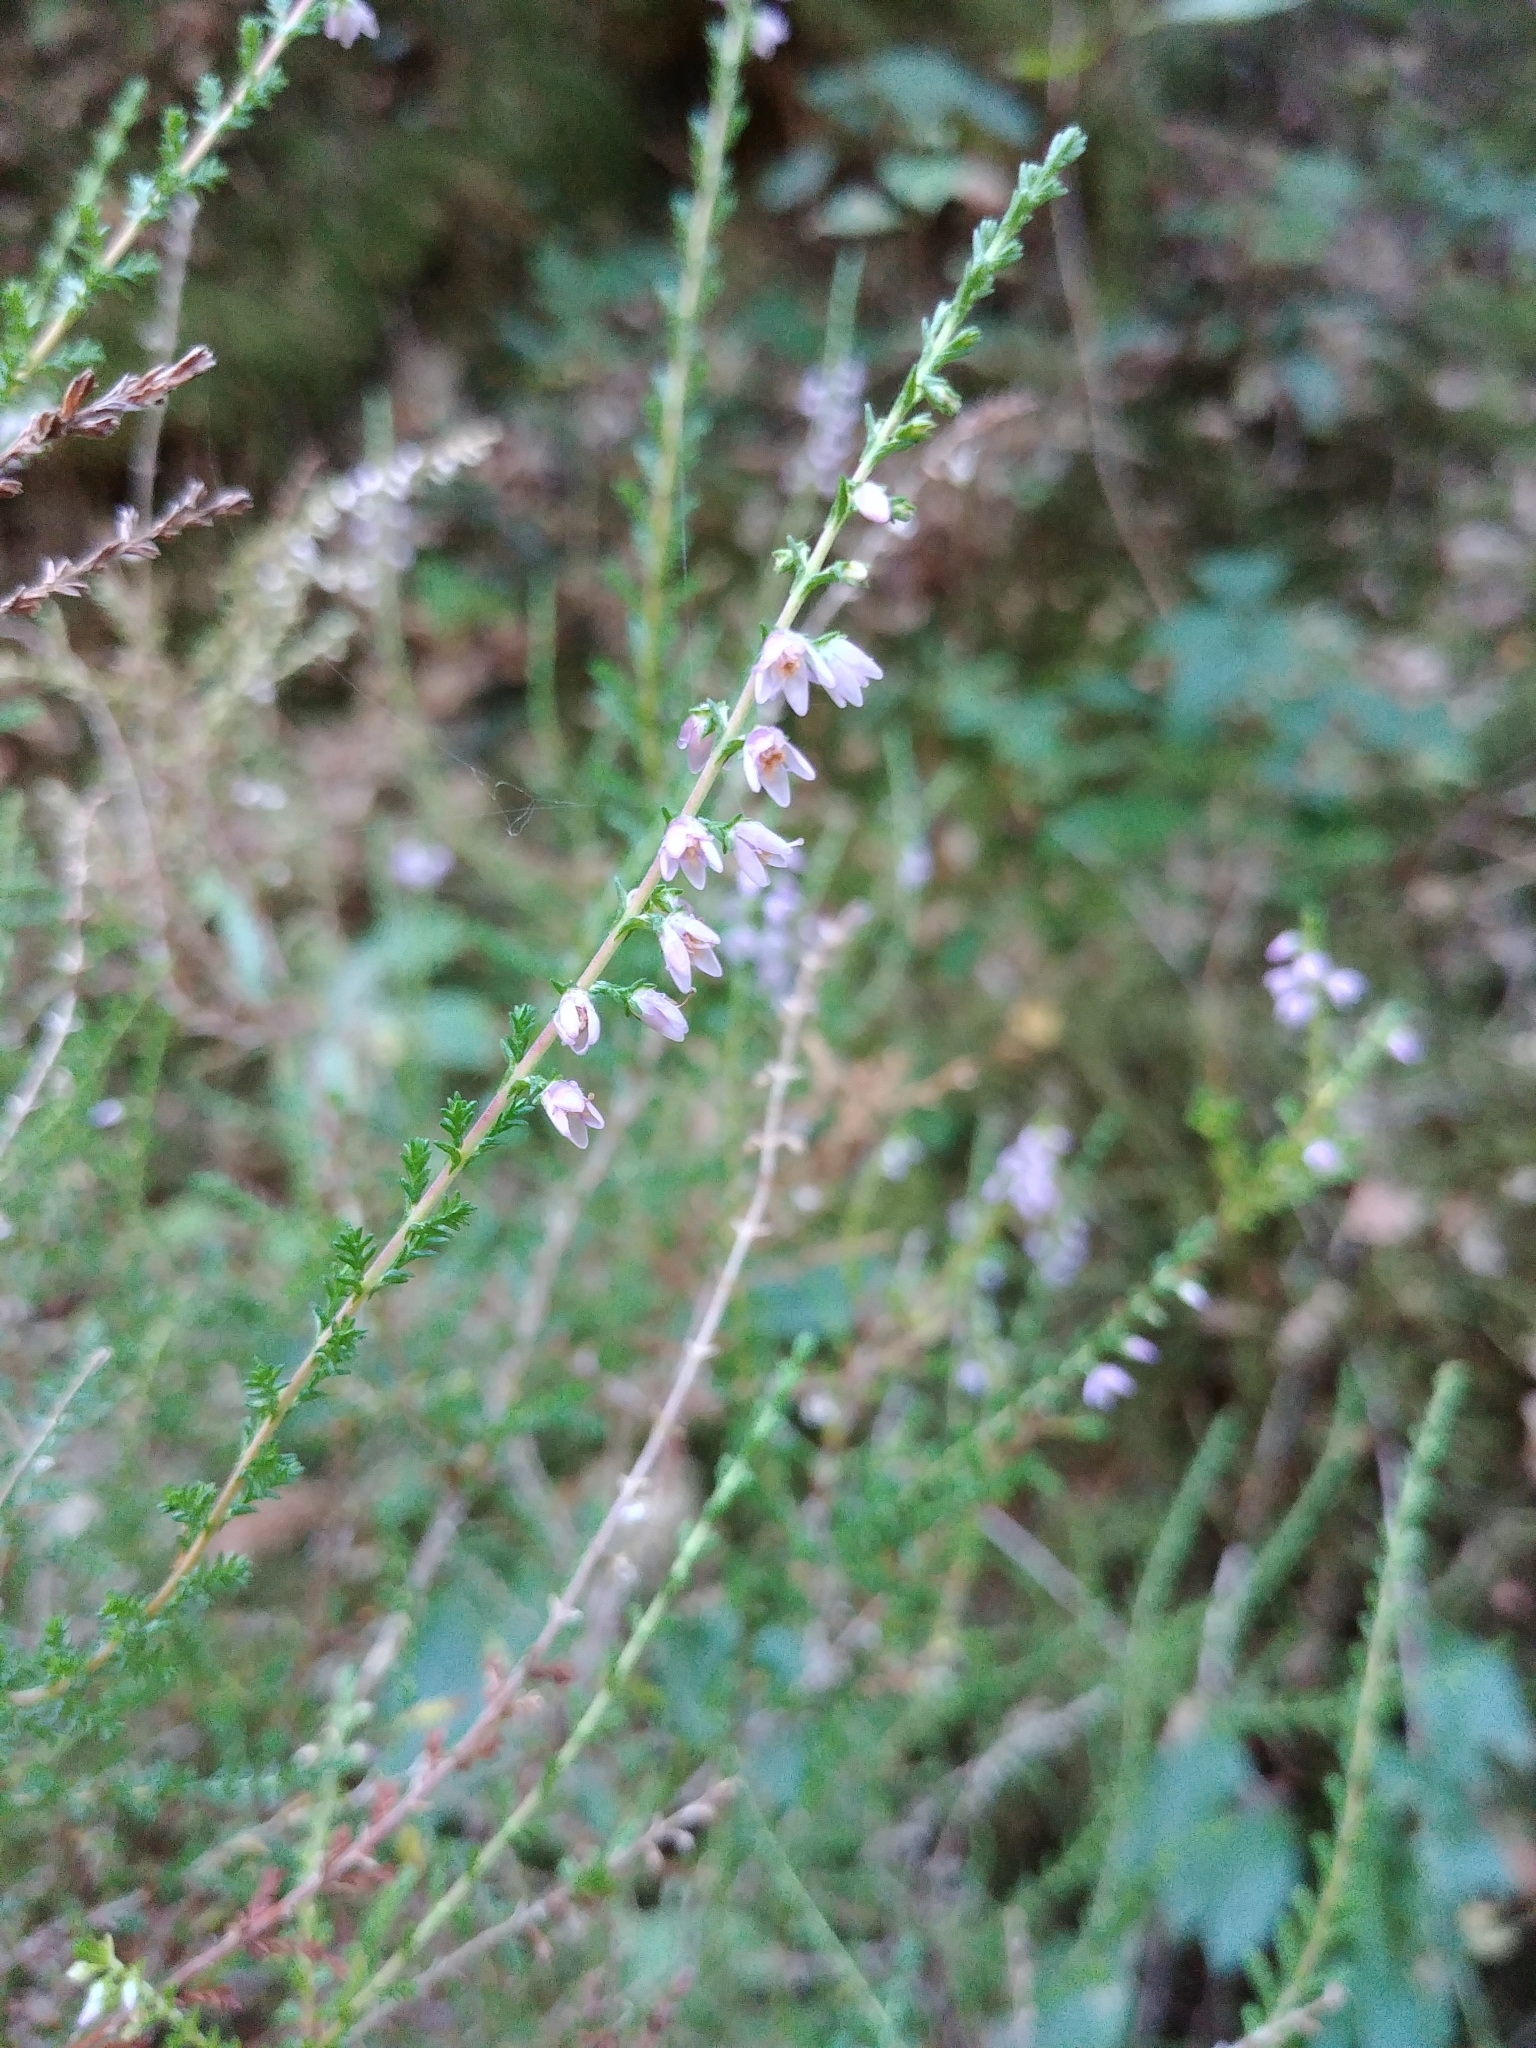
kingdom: Plantae
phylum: Tracheophyta
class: Magnoliopsida
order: Ericales
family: Ericaceae
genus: Calluna
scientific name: Calluna vulgaris
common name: Heather
